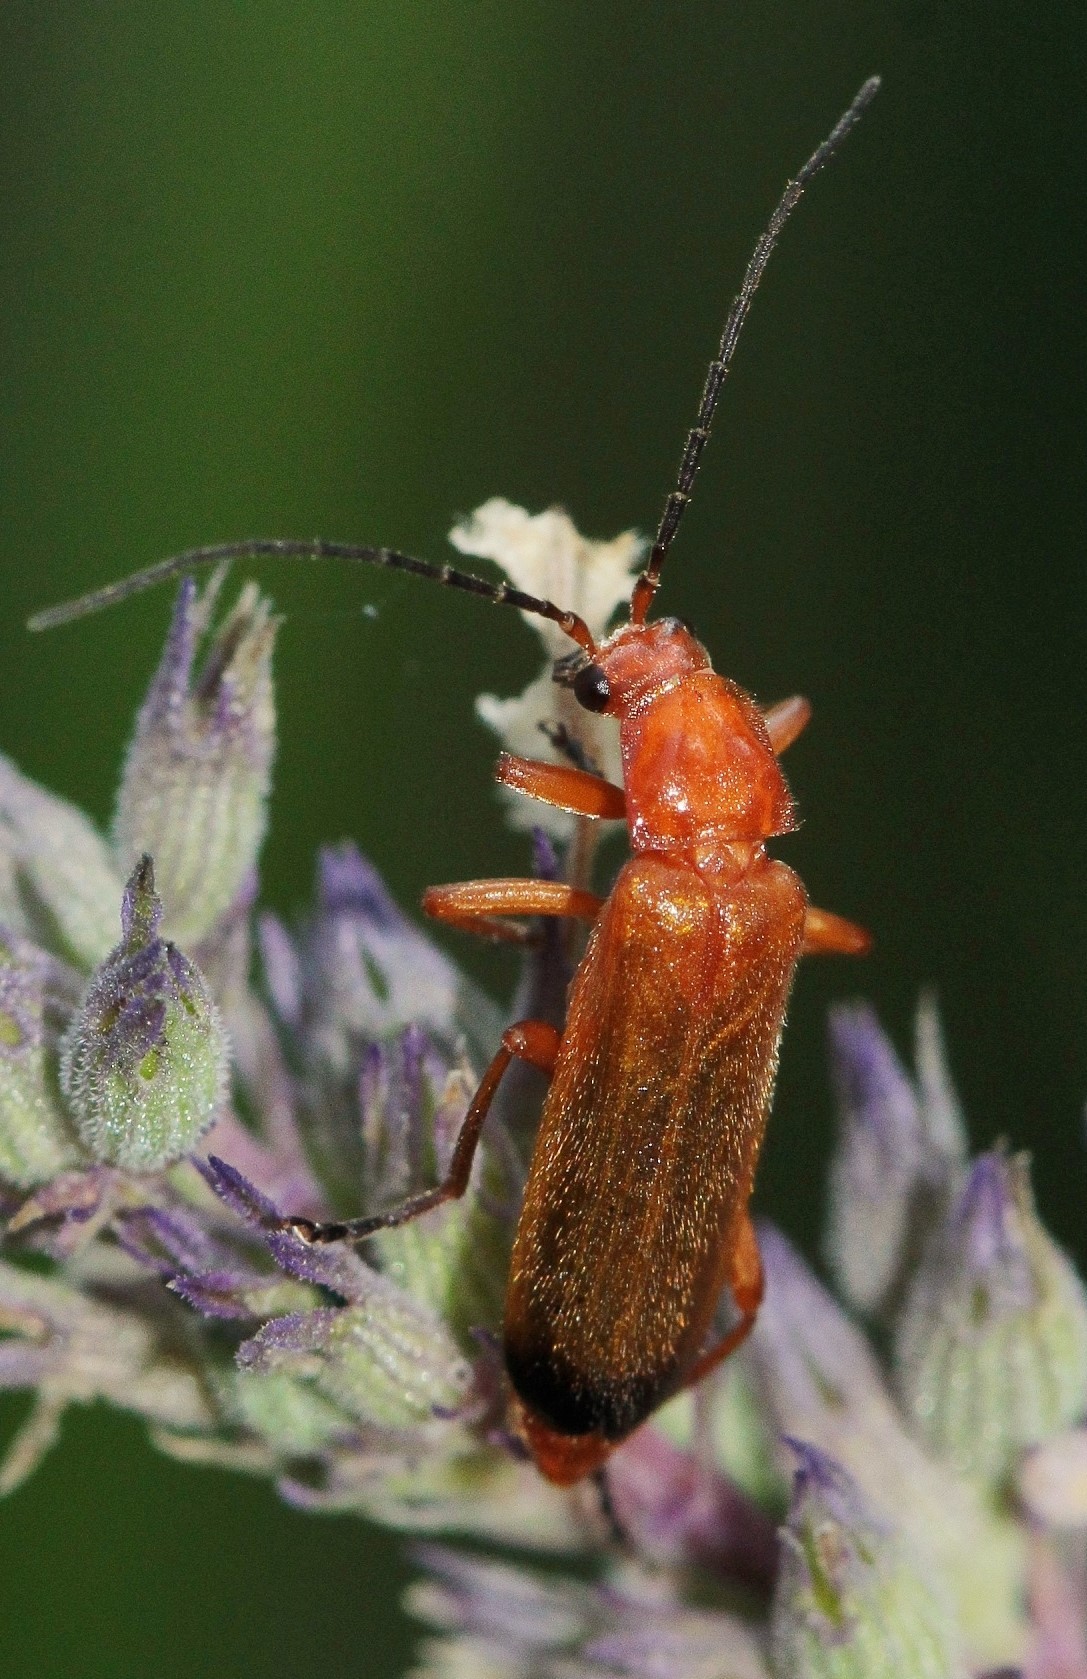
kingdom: Animalia
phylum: Arthropoda
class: Insecta
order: Coleoptera
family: Cantharidae
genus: Rhagonycha
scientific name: Rhagonycha fulva
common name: Common red soldier beetle
